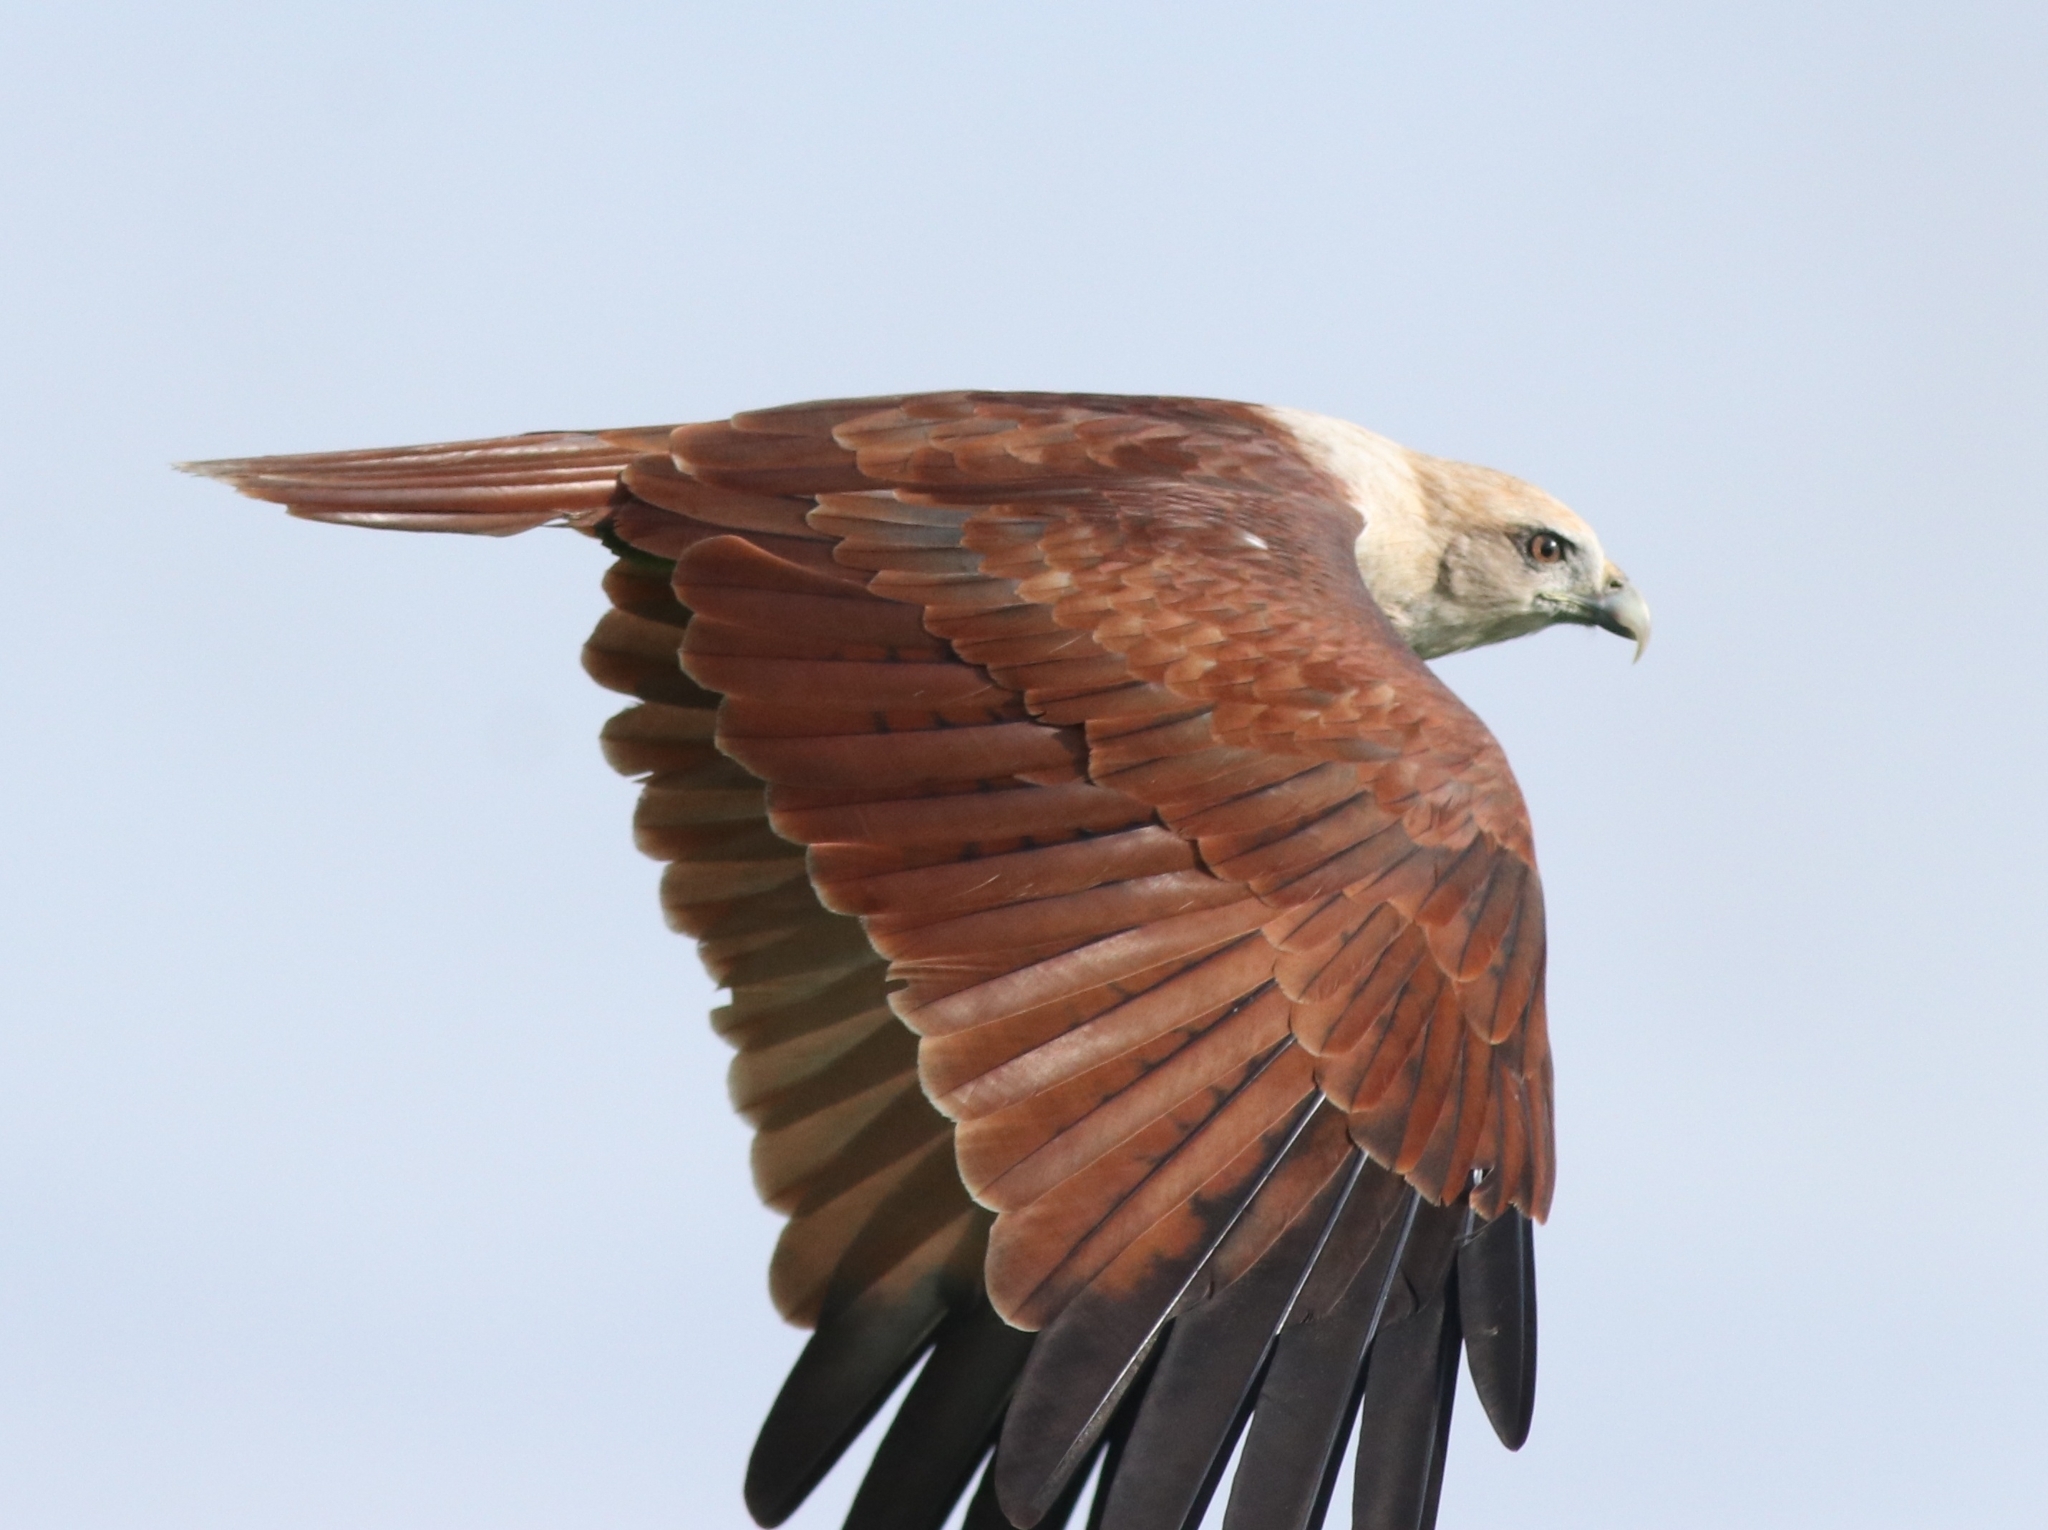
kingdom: Animalia
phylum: Chordata
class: Aves
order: Accipitriformes
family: Accipitridae
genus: Haliastur
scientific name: Haliastur indus
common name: Brahminy kite
